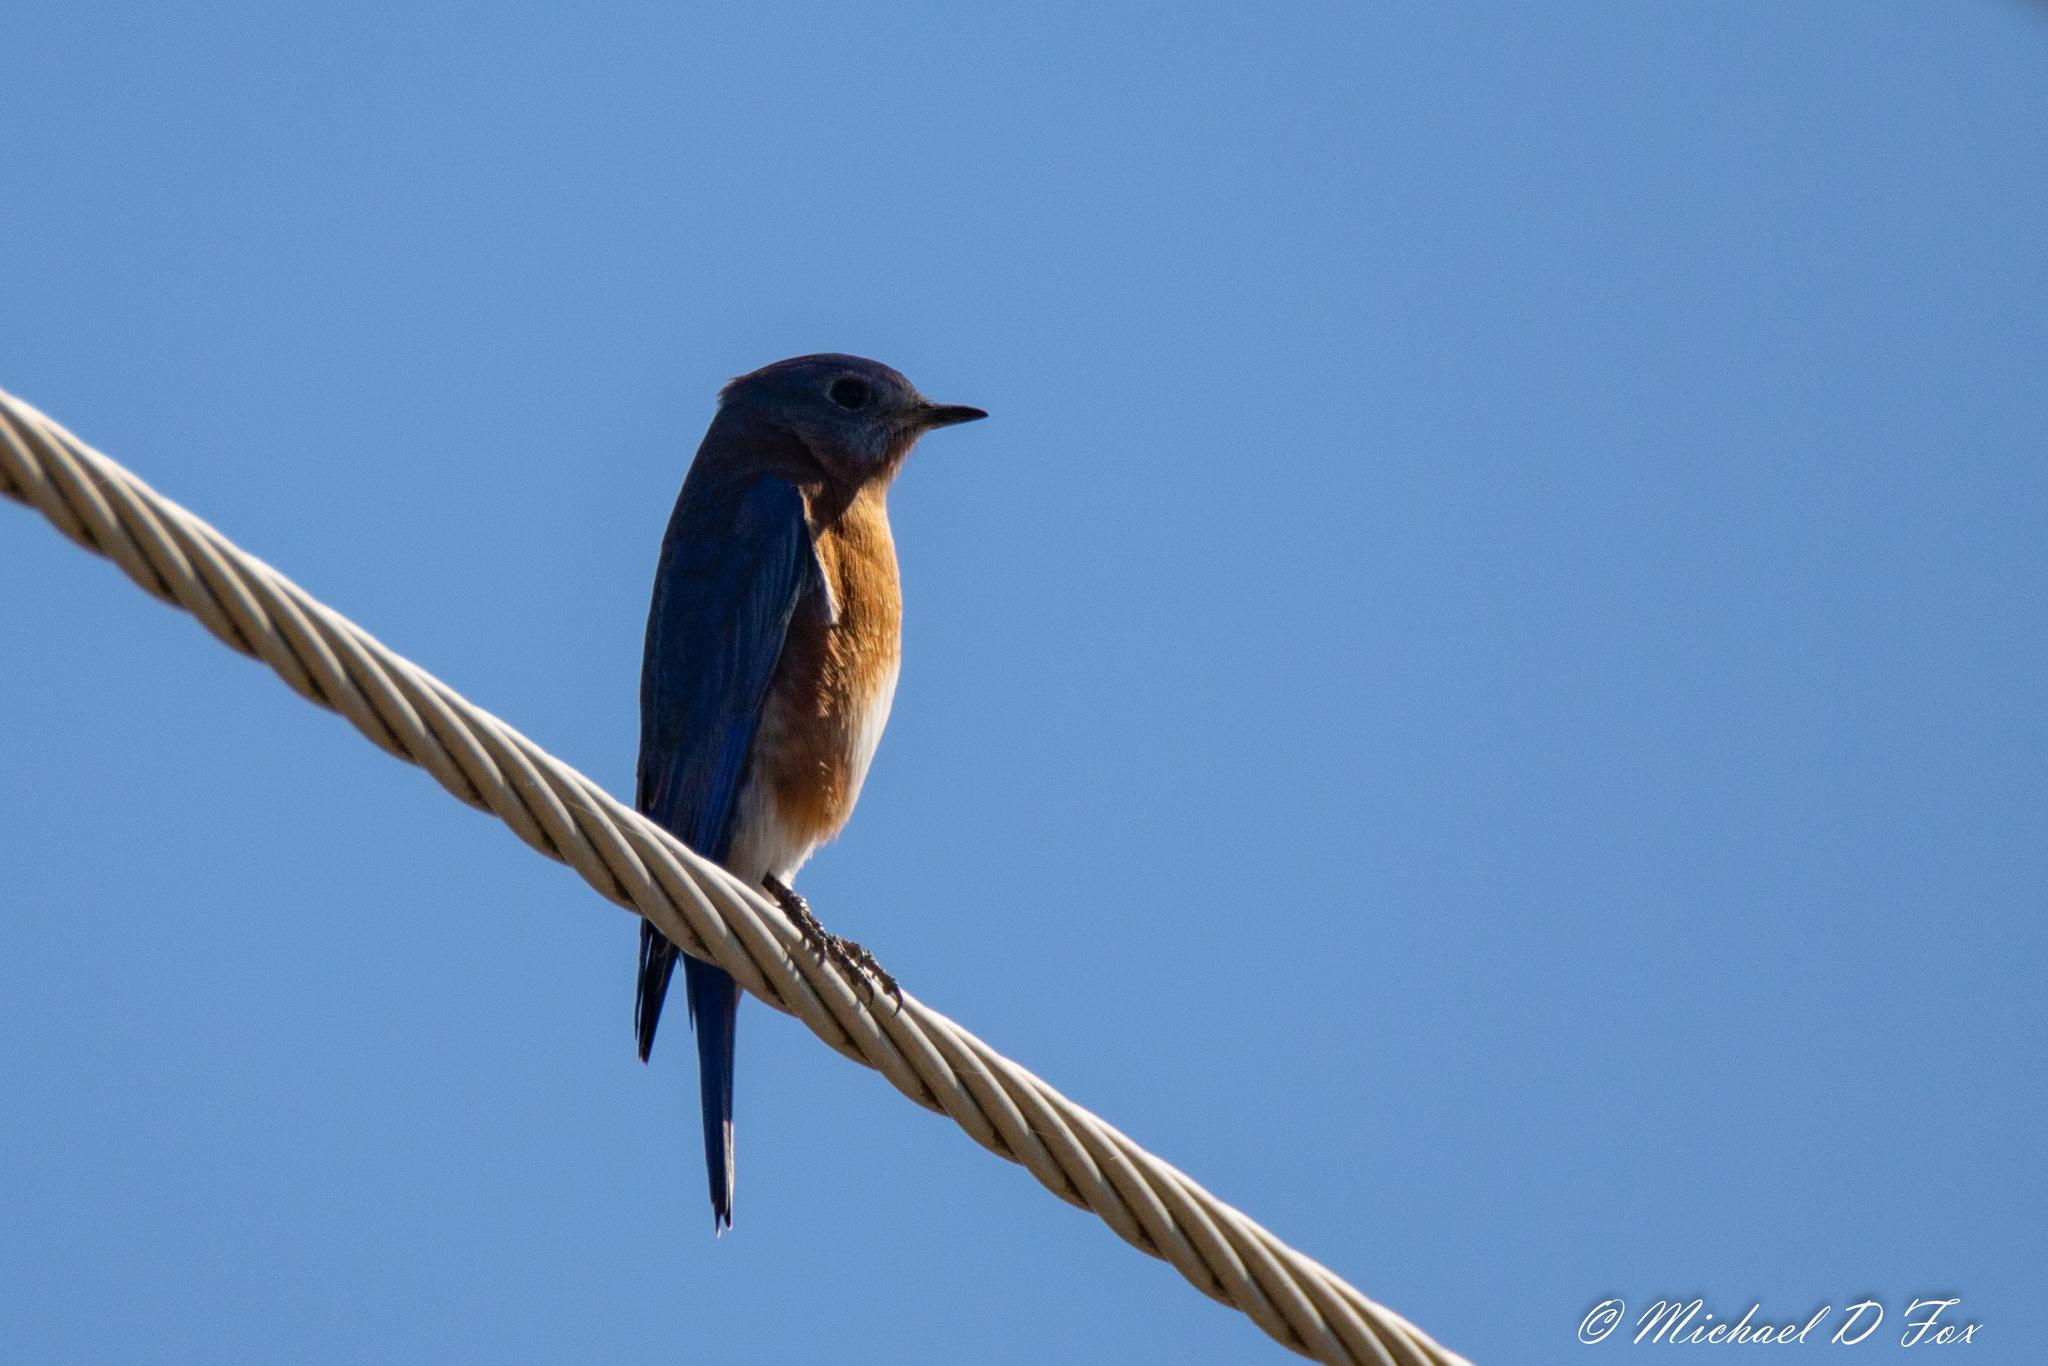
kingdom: Animalia
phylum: Chordata
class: Aves
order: Passeriformes
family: Turdidae
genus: Sialia
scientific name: Sialia sialis
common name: Eastern bluebird
